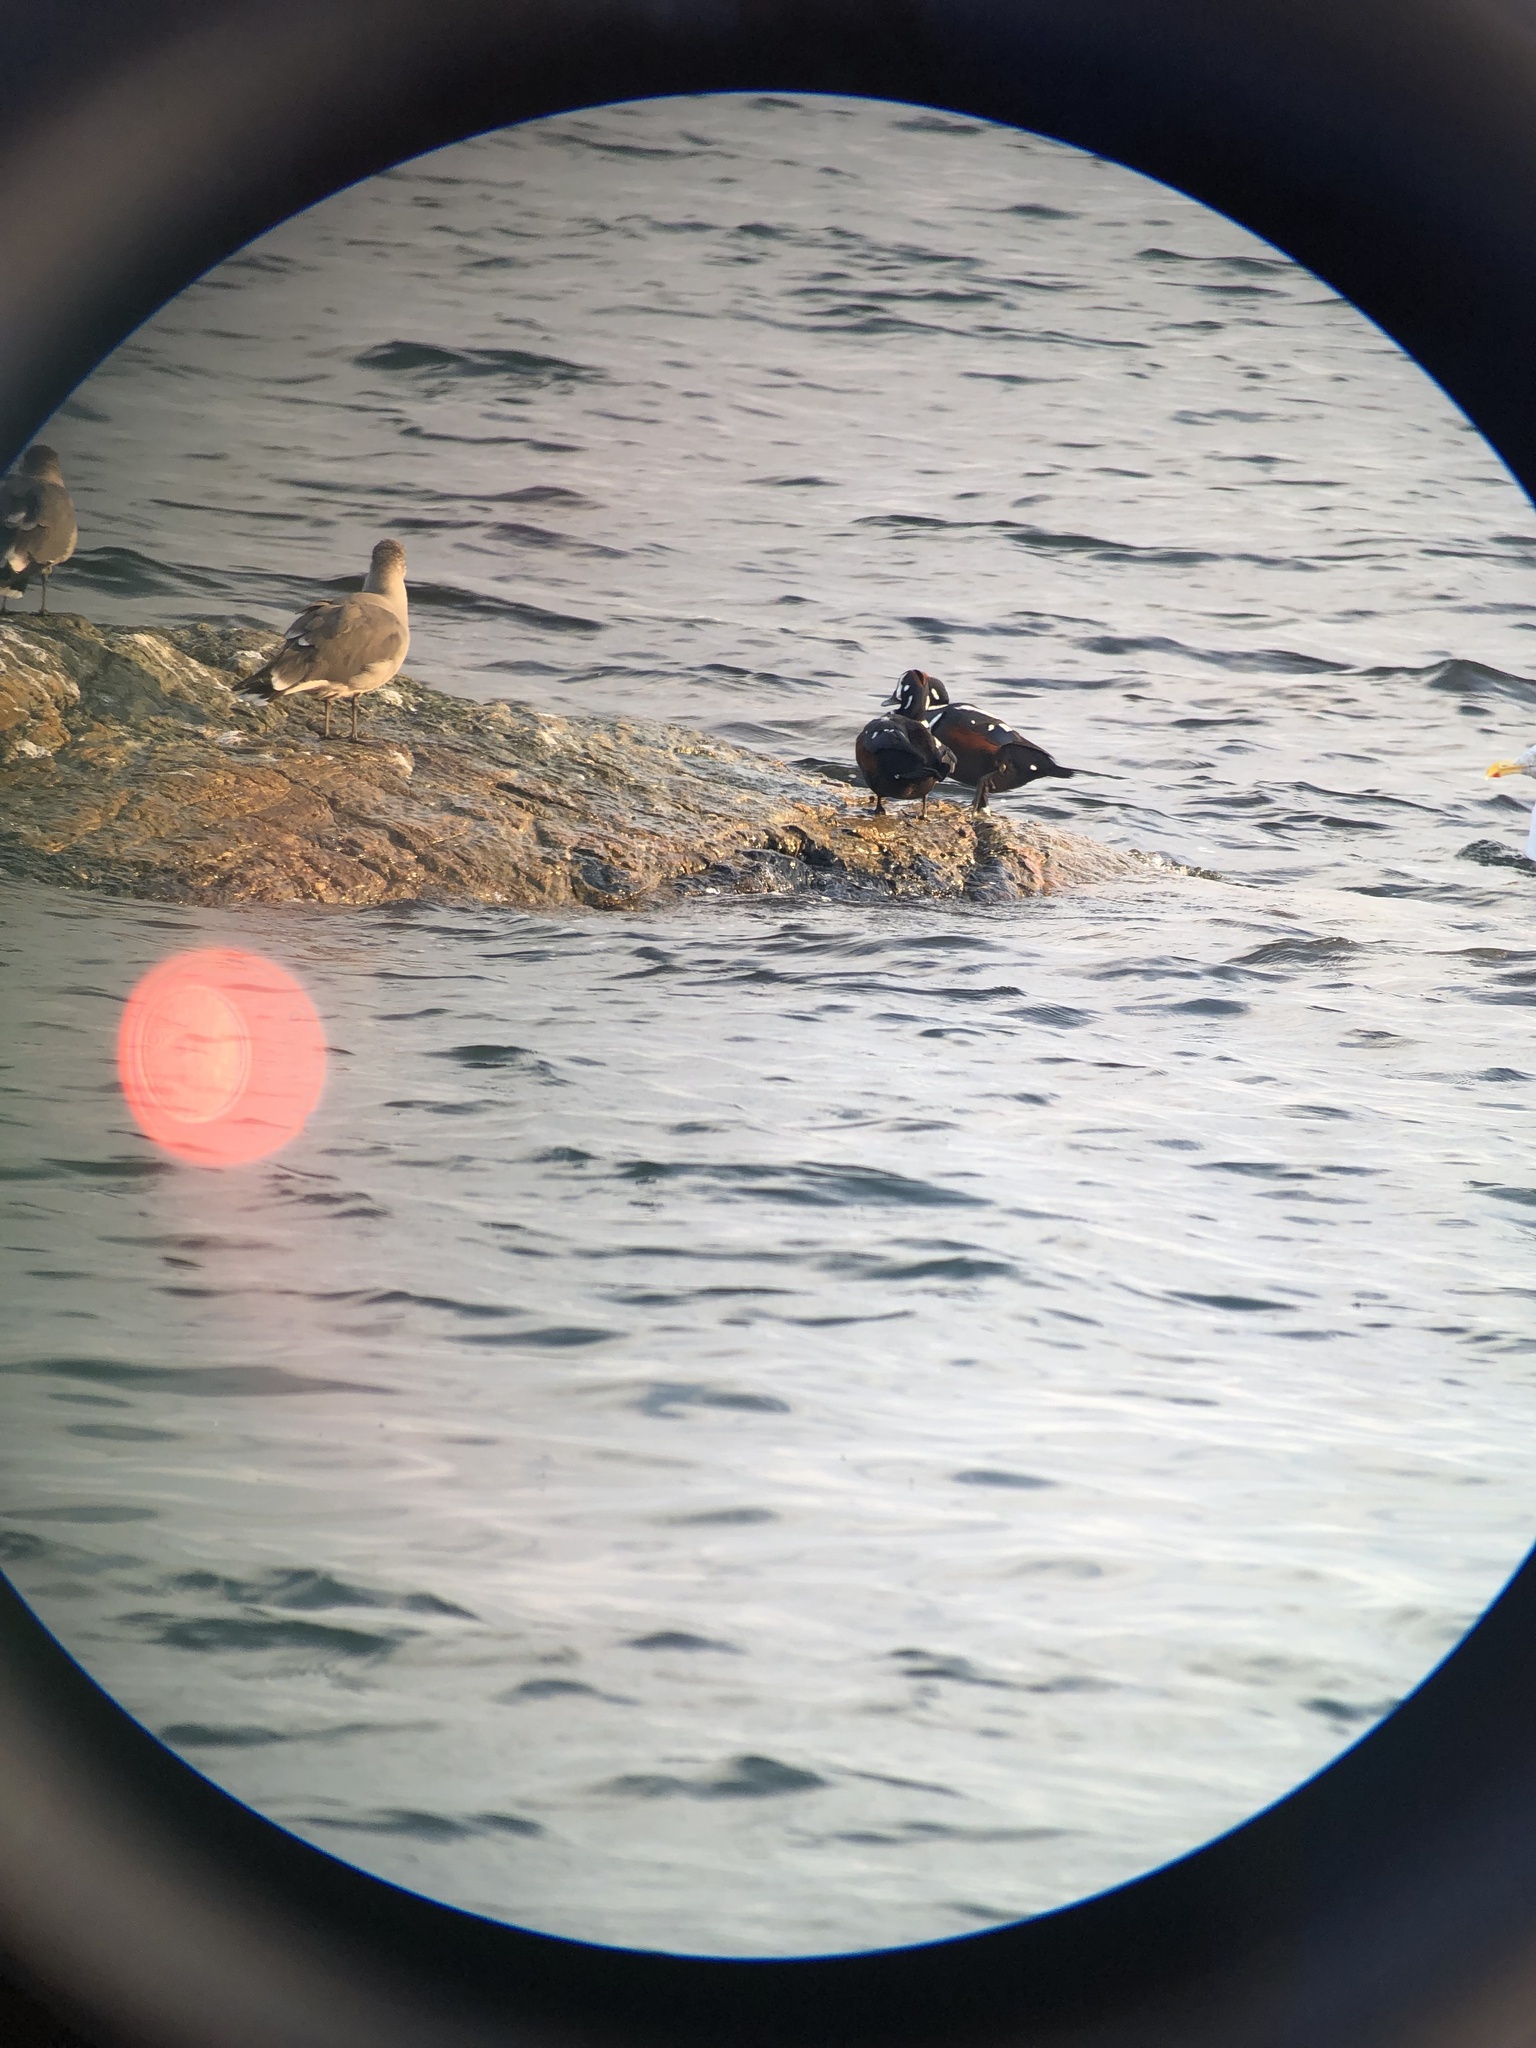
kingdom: Animalia
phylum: Chordata
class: Aves
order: Anseriformes
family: Anatidae
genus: Histrionicus
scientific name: Histrionicus histrionicus
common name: Harlequin duck
